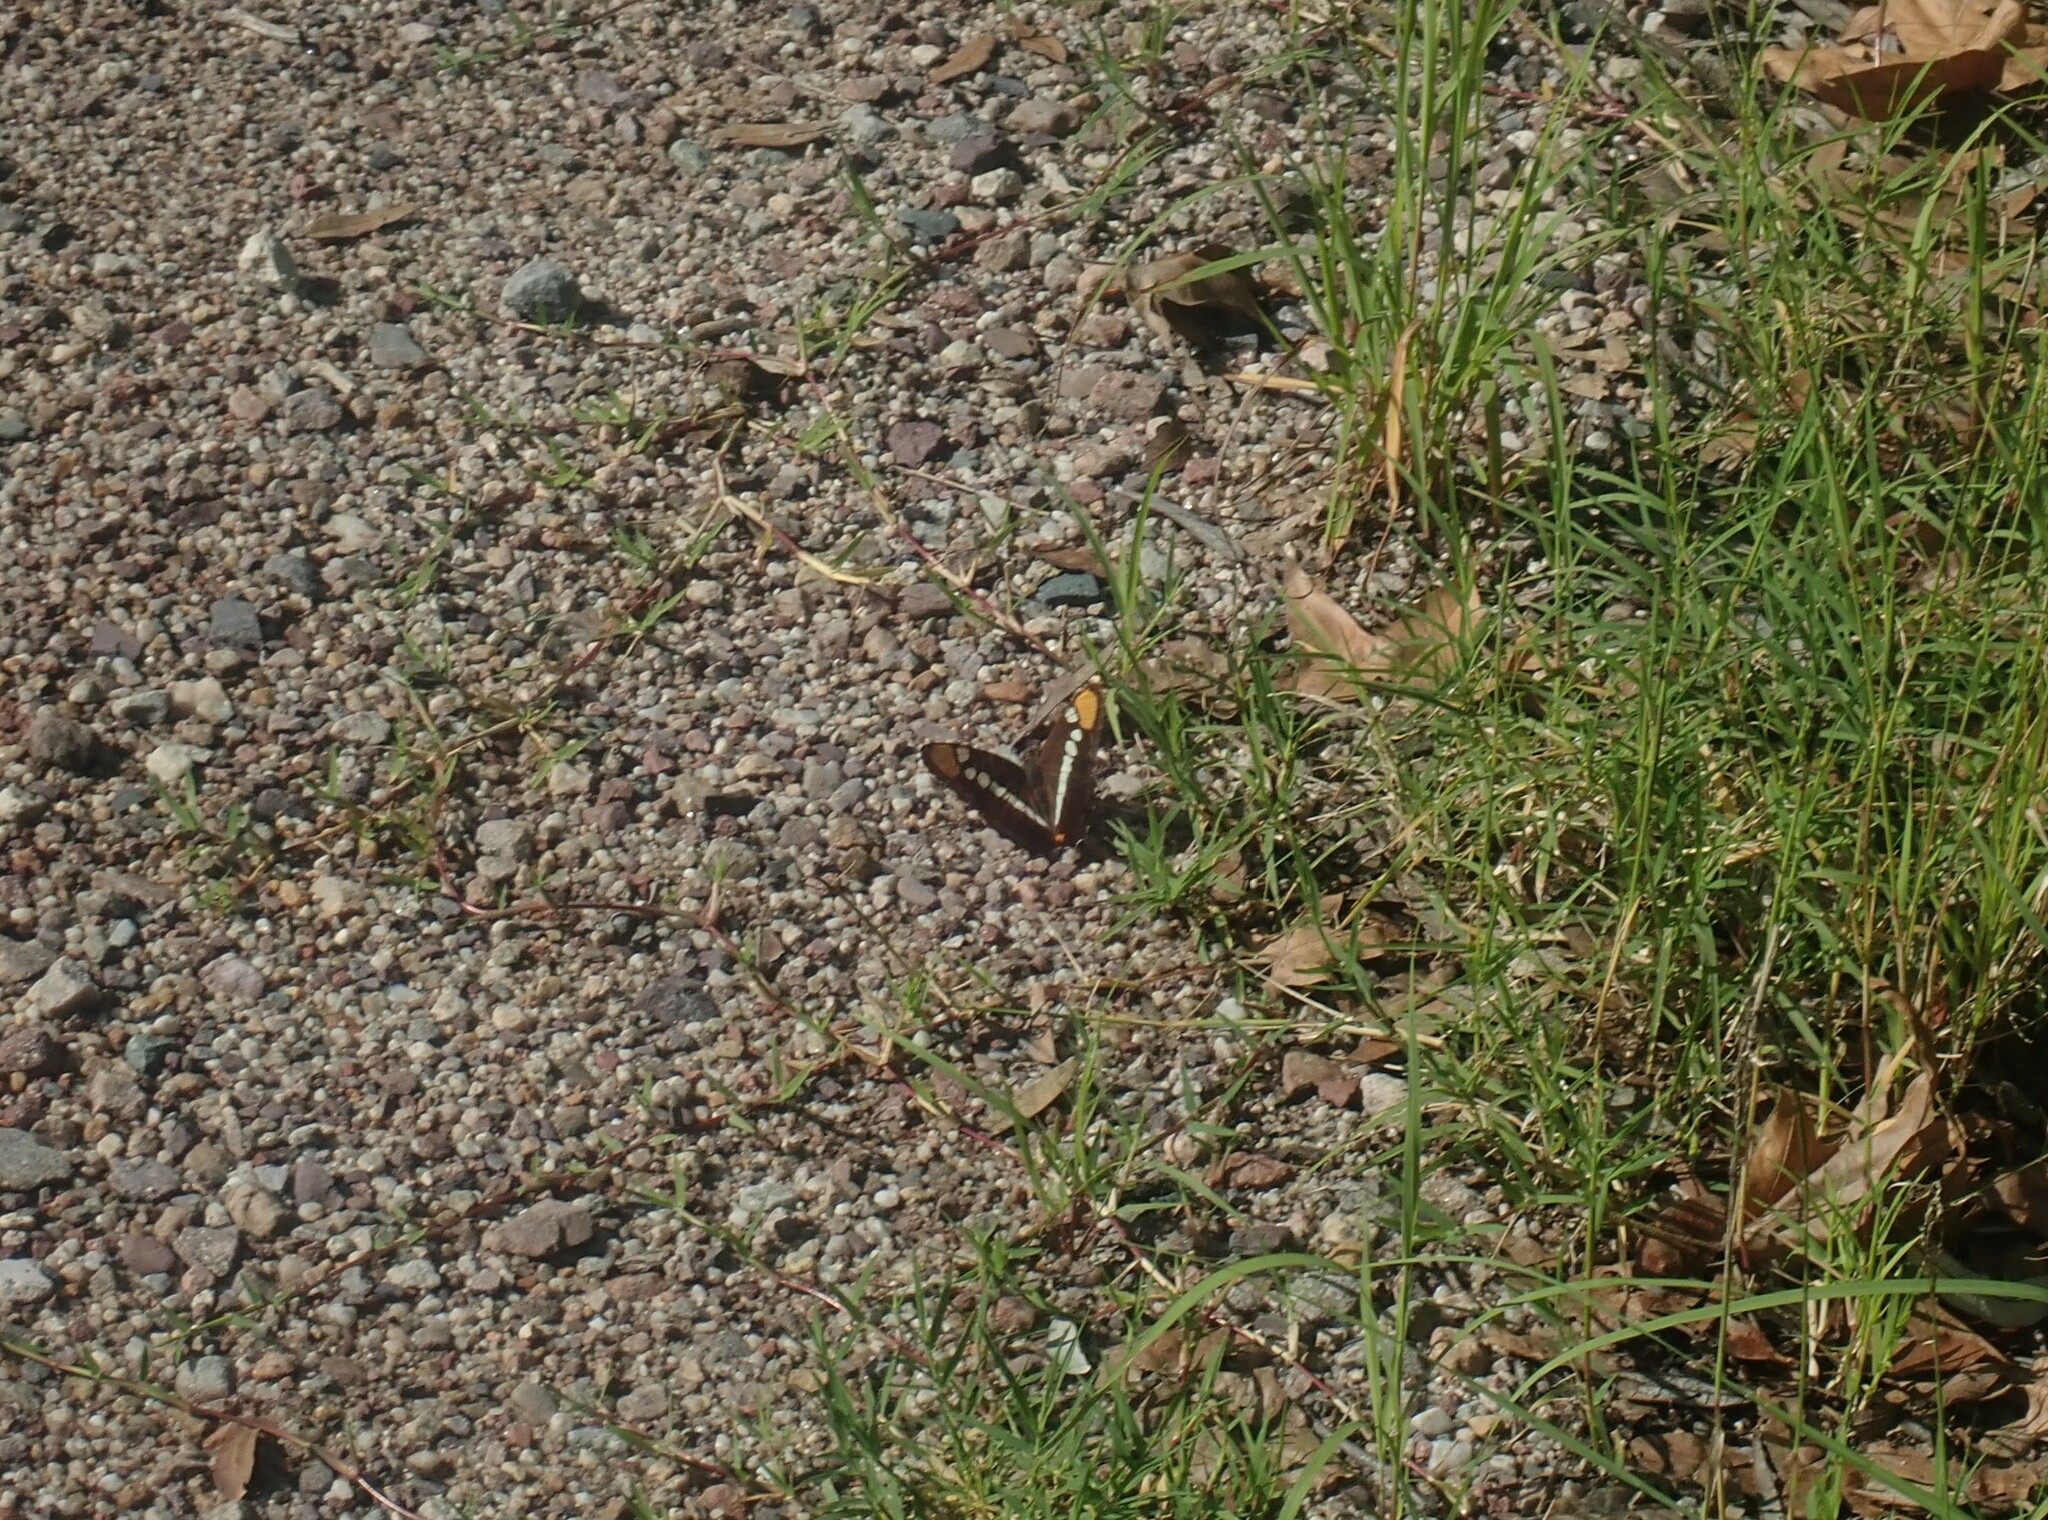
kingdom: Animalia
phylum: Arthropoda
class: Insecta
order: Lepidoptera
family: Nymphalidae
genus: Limenitis
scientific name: Limenitis bredowii
